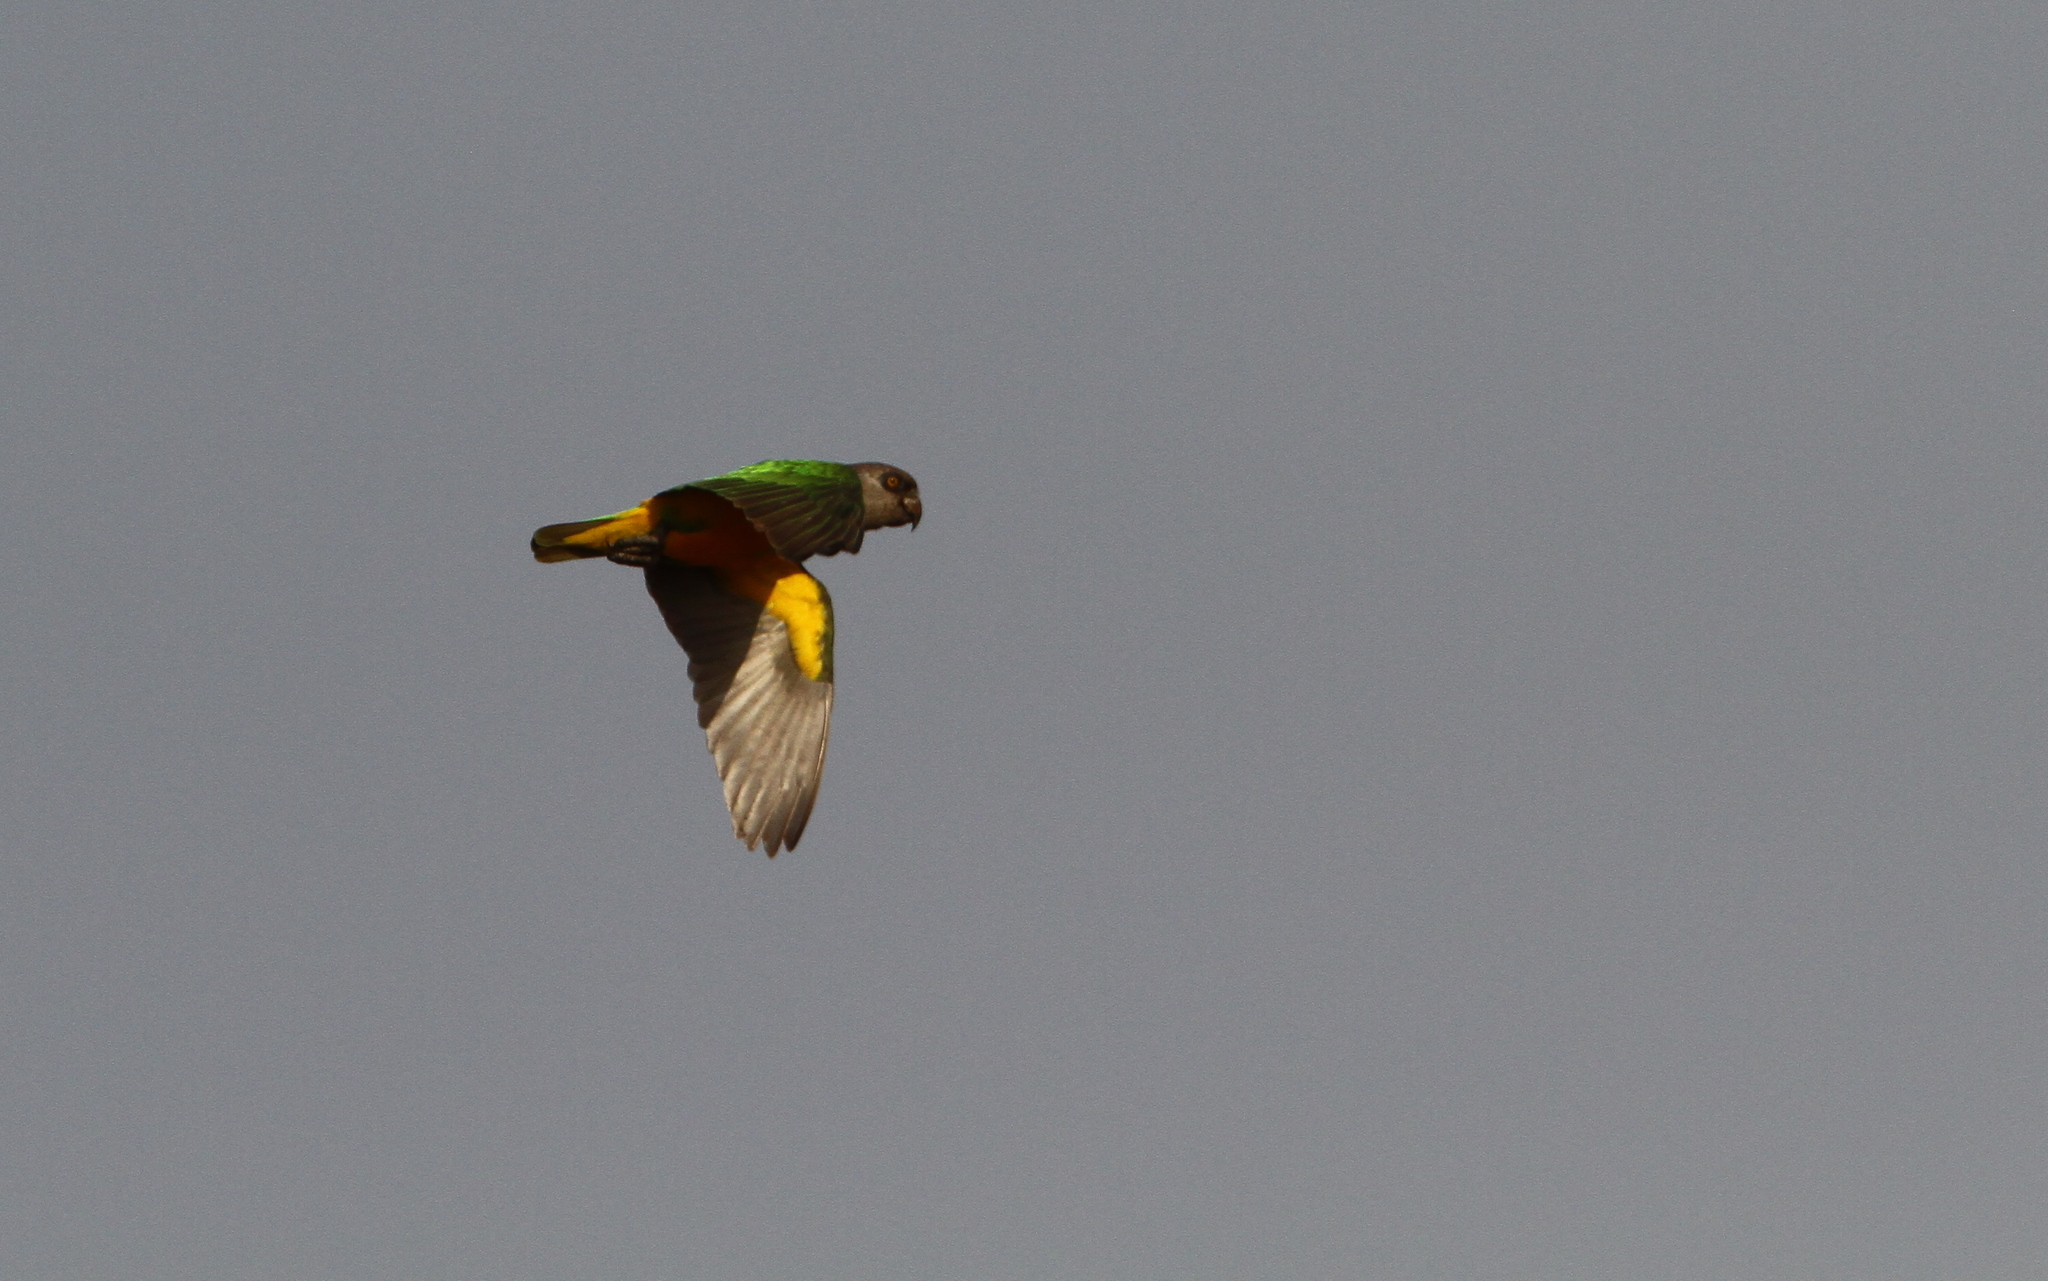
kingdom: Animalia
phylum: Chordata
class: Aves
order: Psittaciformes
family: Psittacidae
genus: Poicephalus
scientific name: Poicephalus senegalus
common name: Senegal parrot
